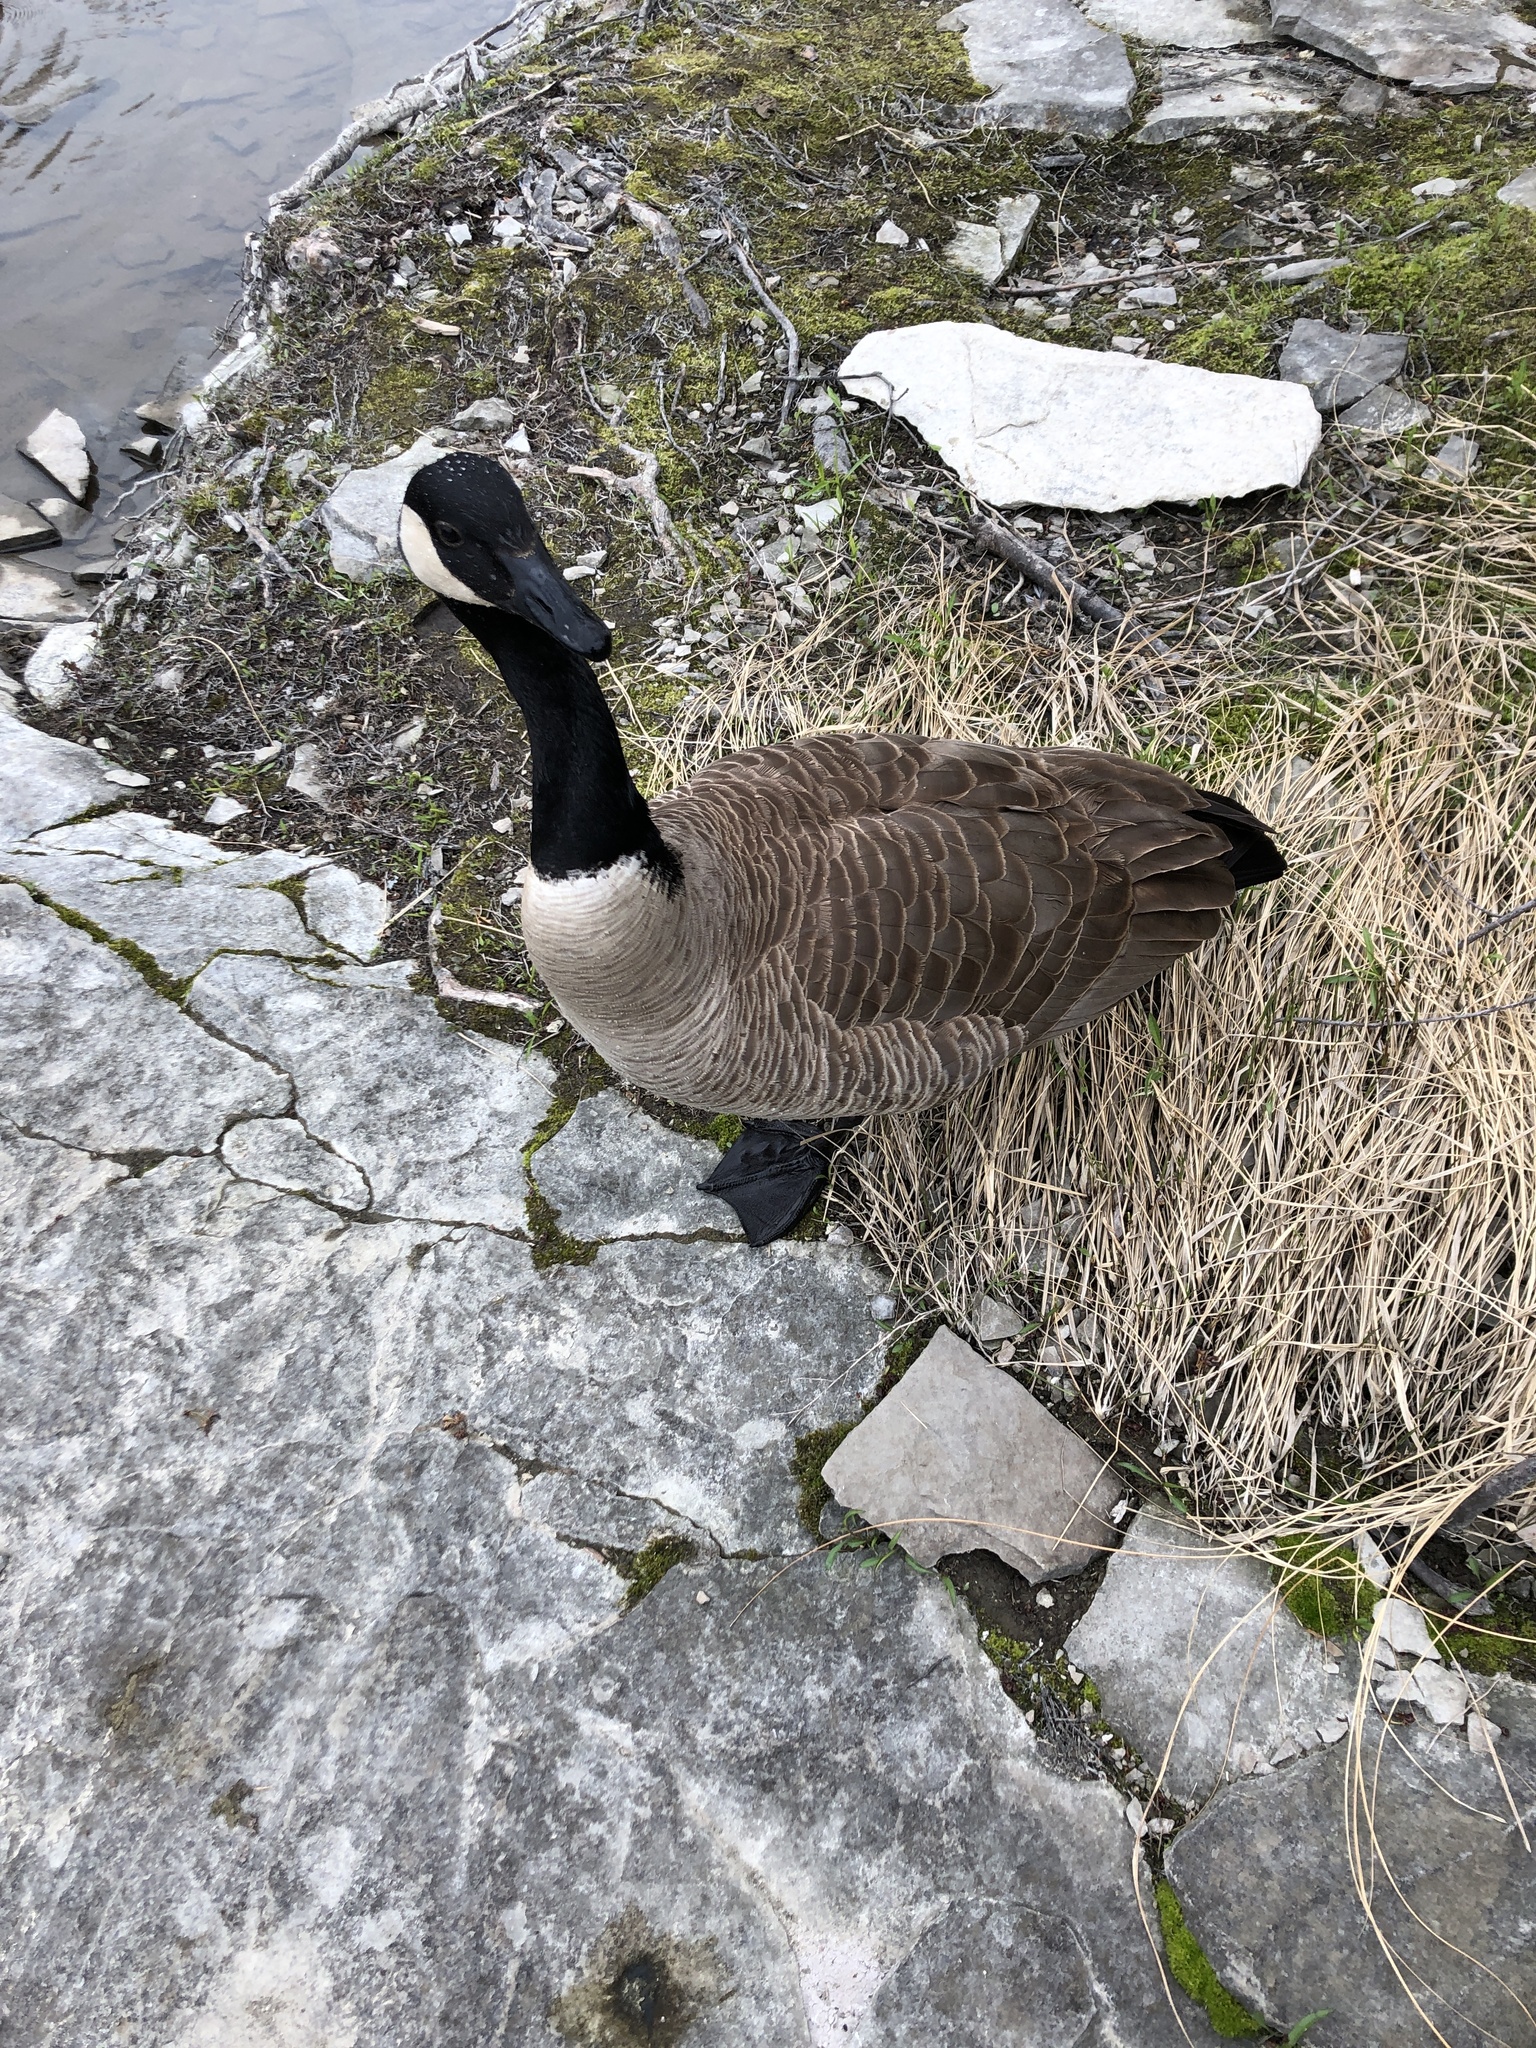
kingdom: Animalia
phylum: Chordata
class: Aves
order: Anseriformes
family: Anatidae
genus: Branta
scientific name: Branta canadensis
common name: Canada goose
